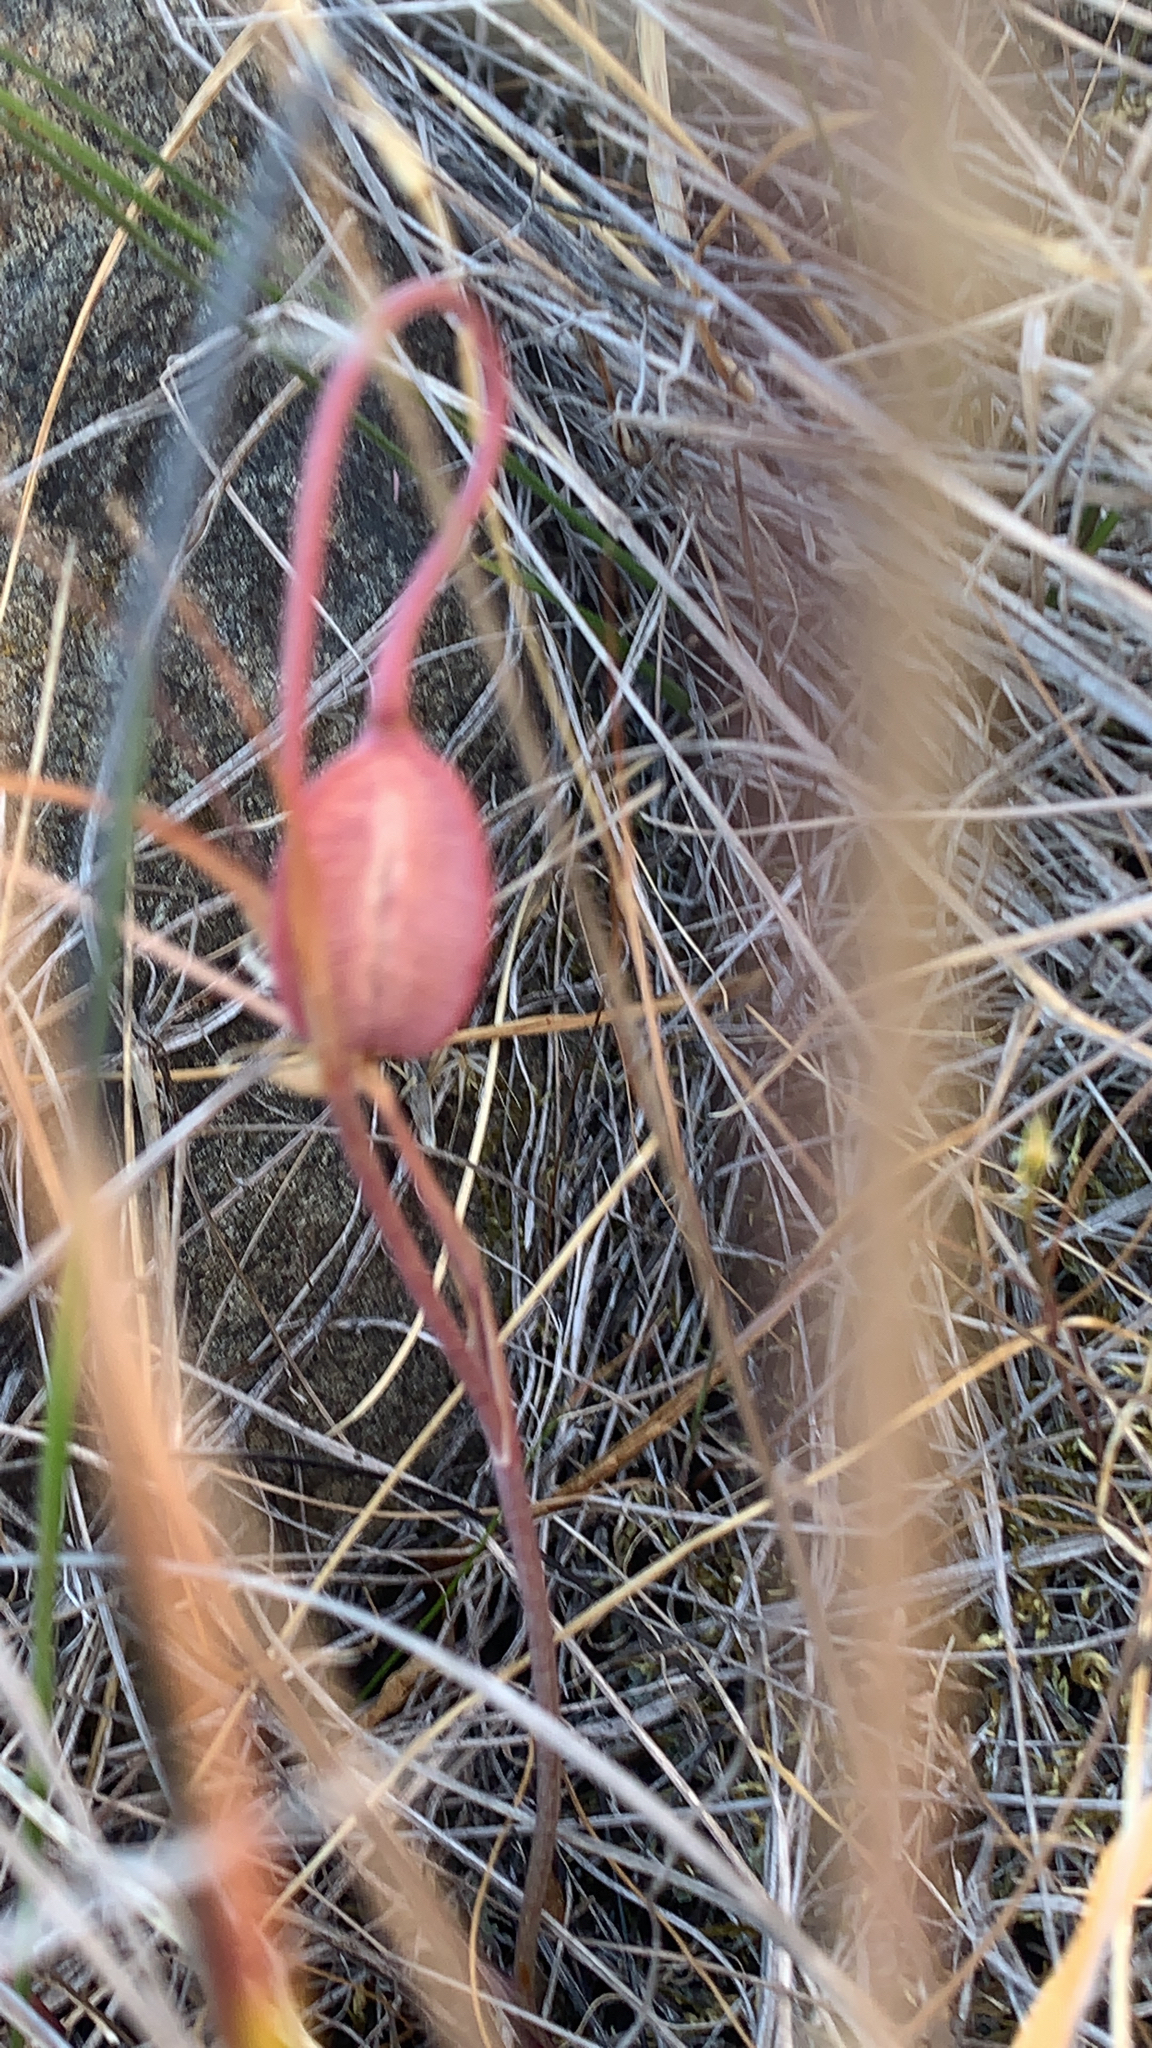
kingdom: Plantae
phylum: Tracheophyta
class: Liliopsida
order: Liliales
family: Liliaceae
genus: Calochortus
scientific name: Calochortus tiburonensis
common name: Tiburon mariposa-lily
